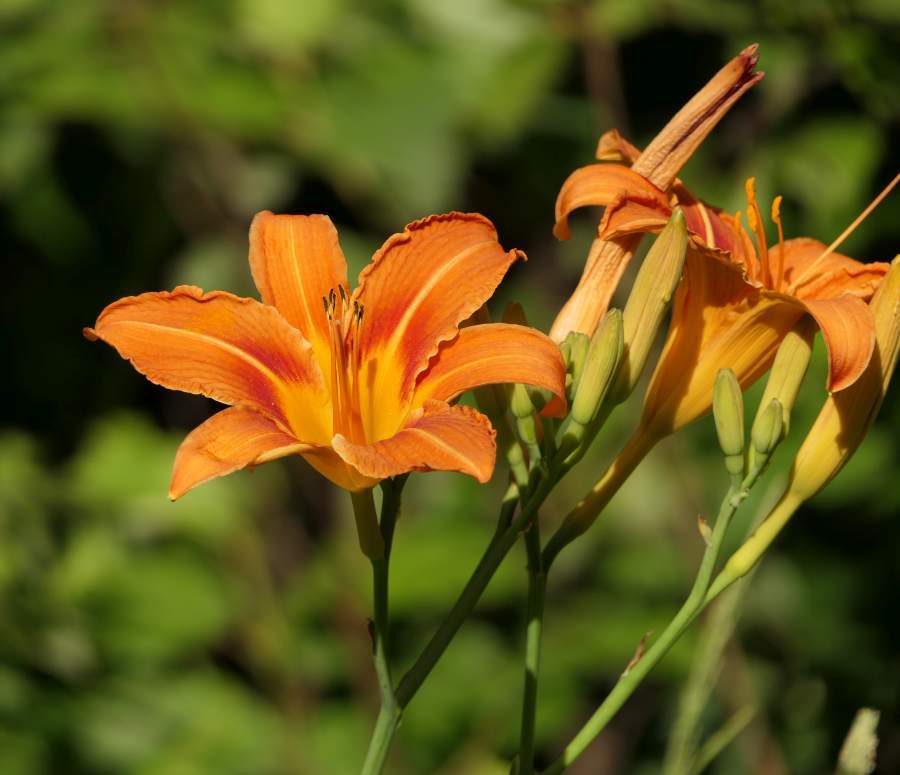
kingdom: Plantae
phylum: Tracheophyta
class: Liliopsida
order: Asparagales
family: Asphodelaceae
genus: Hemerocallis
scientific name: Hemerocallis fulva
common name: Orange day-lily
